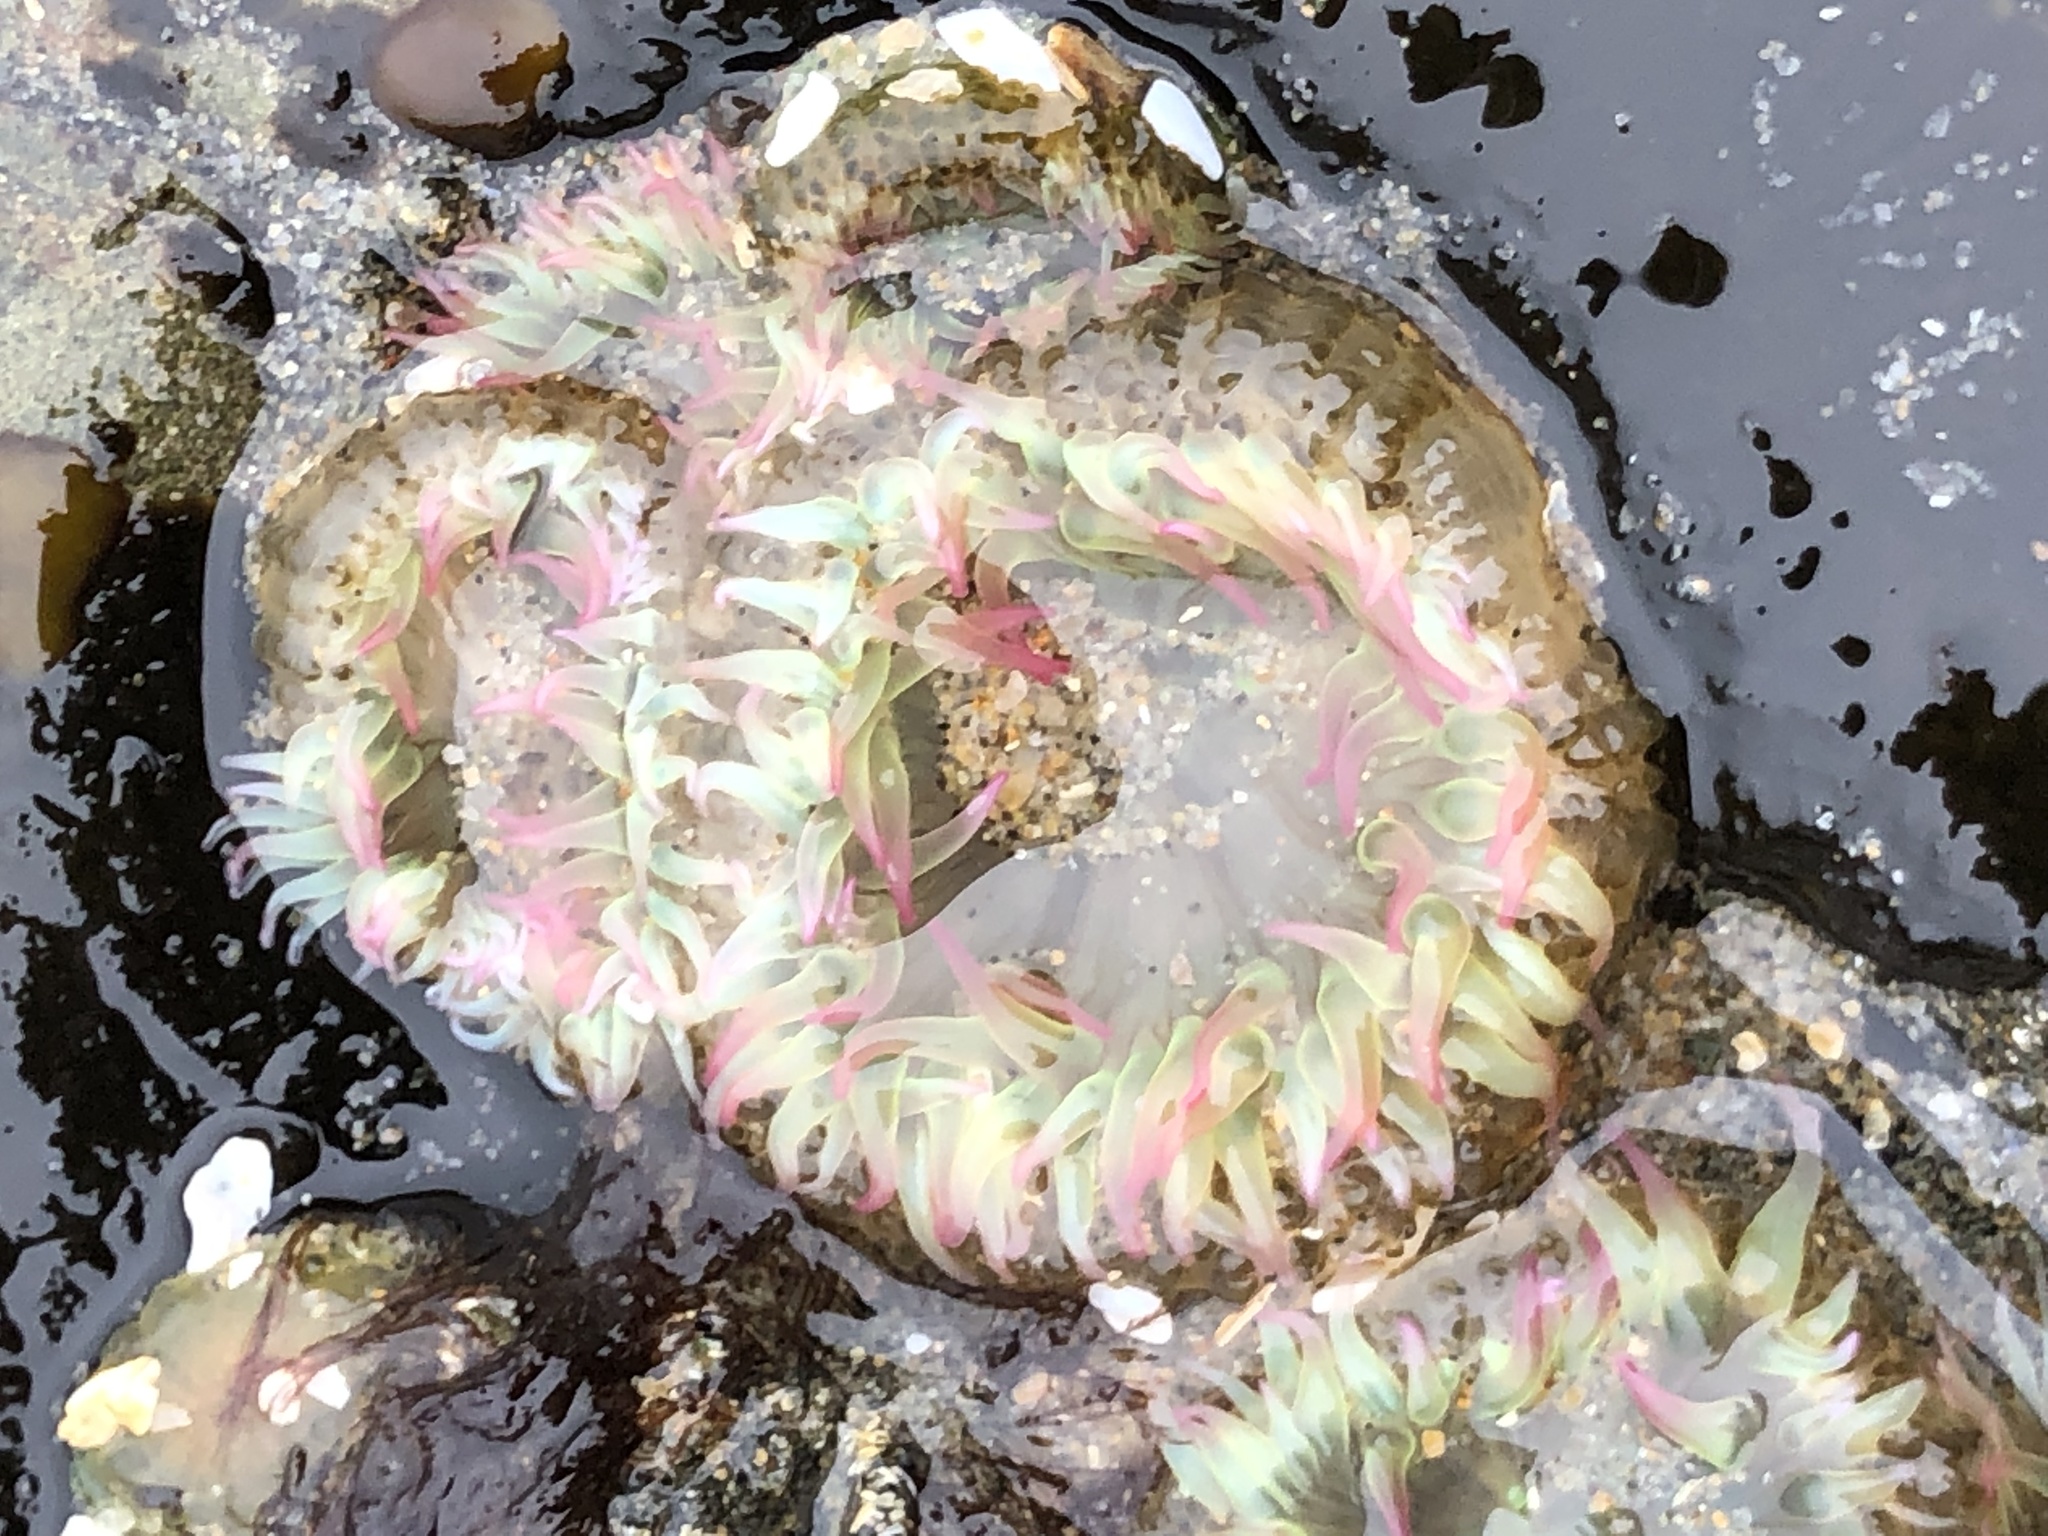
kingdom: Animalia
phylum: Cnidaria
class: Anthozoa
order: Actiniaria
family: Actiniidae
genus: Anthopleura
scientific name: Anthopleura elegantissima
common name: Clonal anemone
